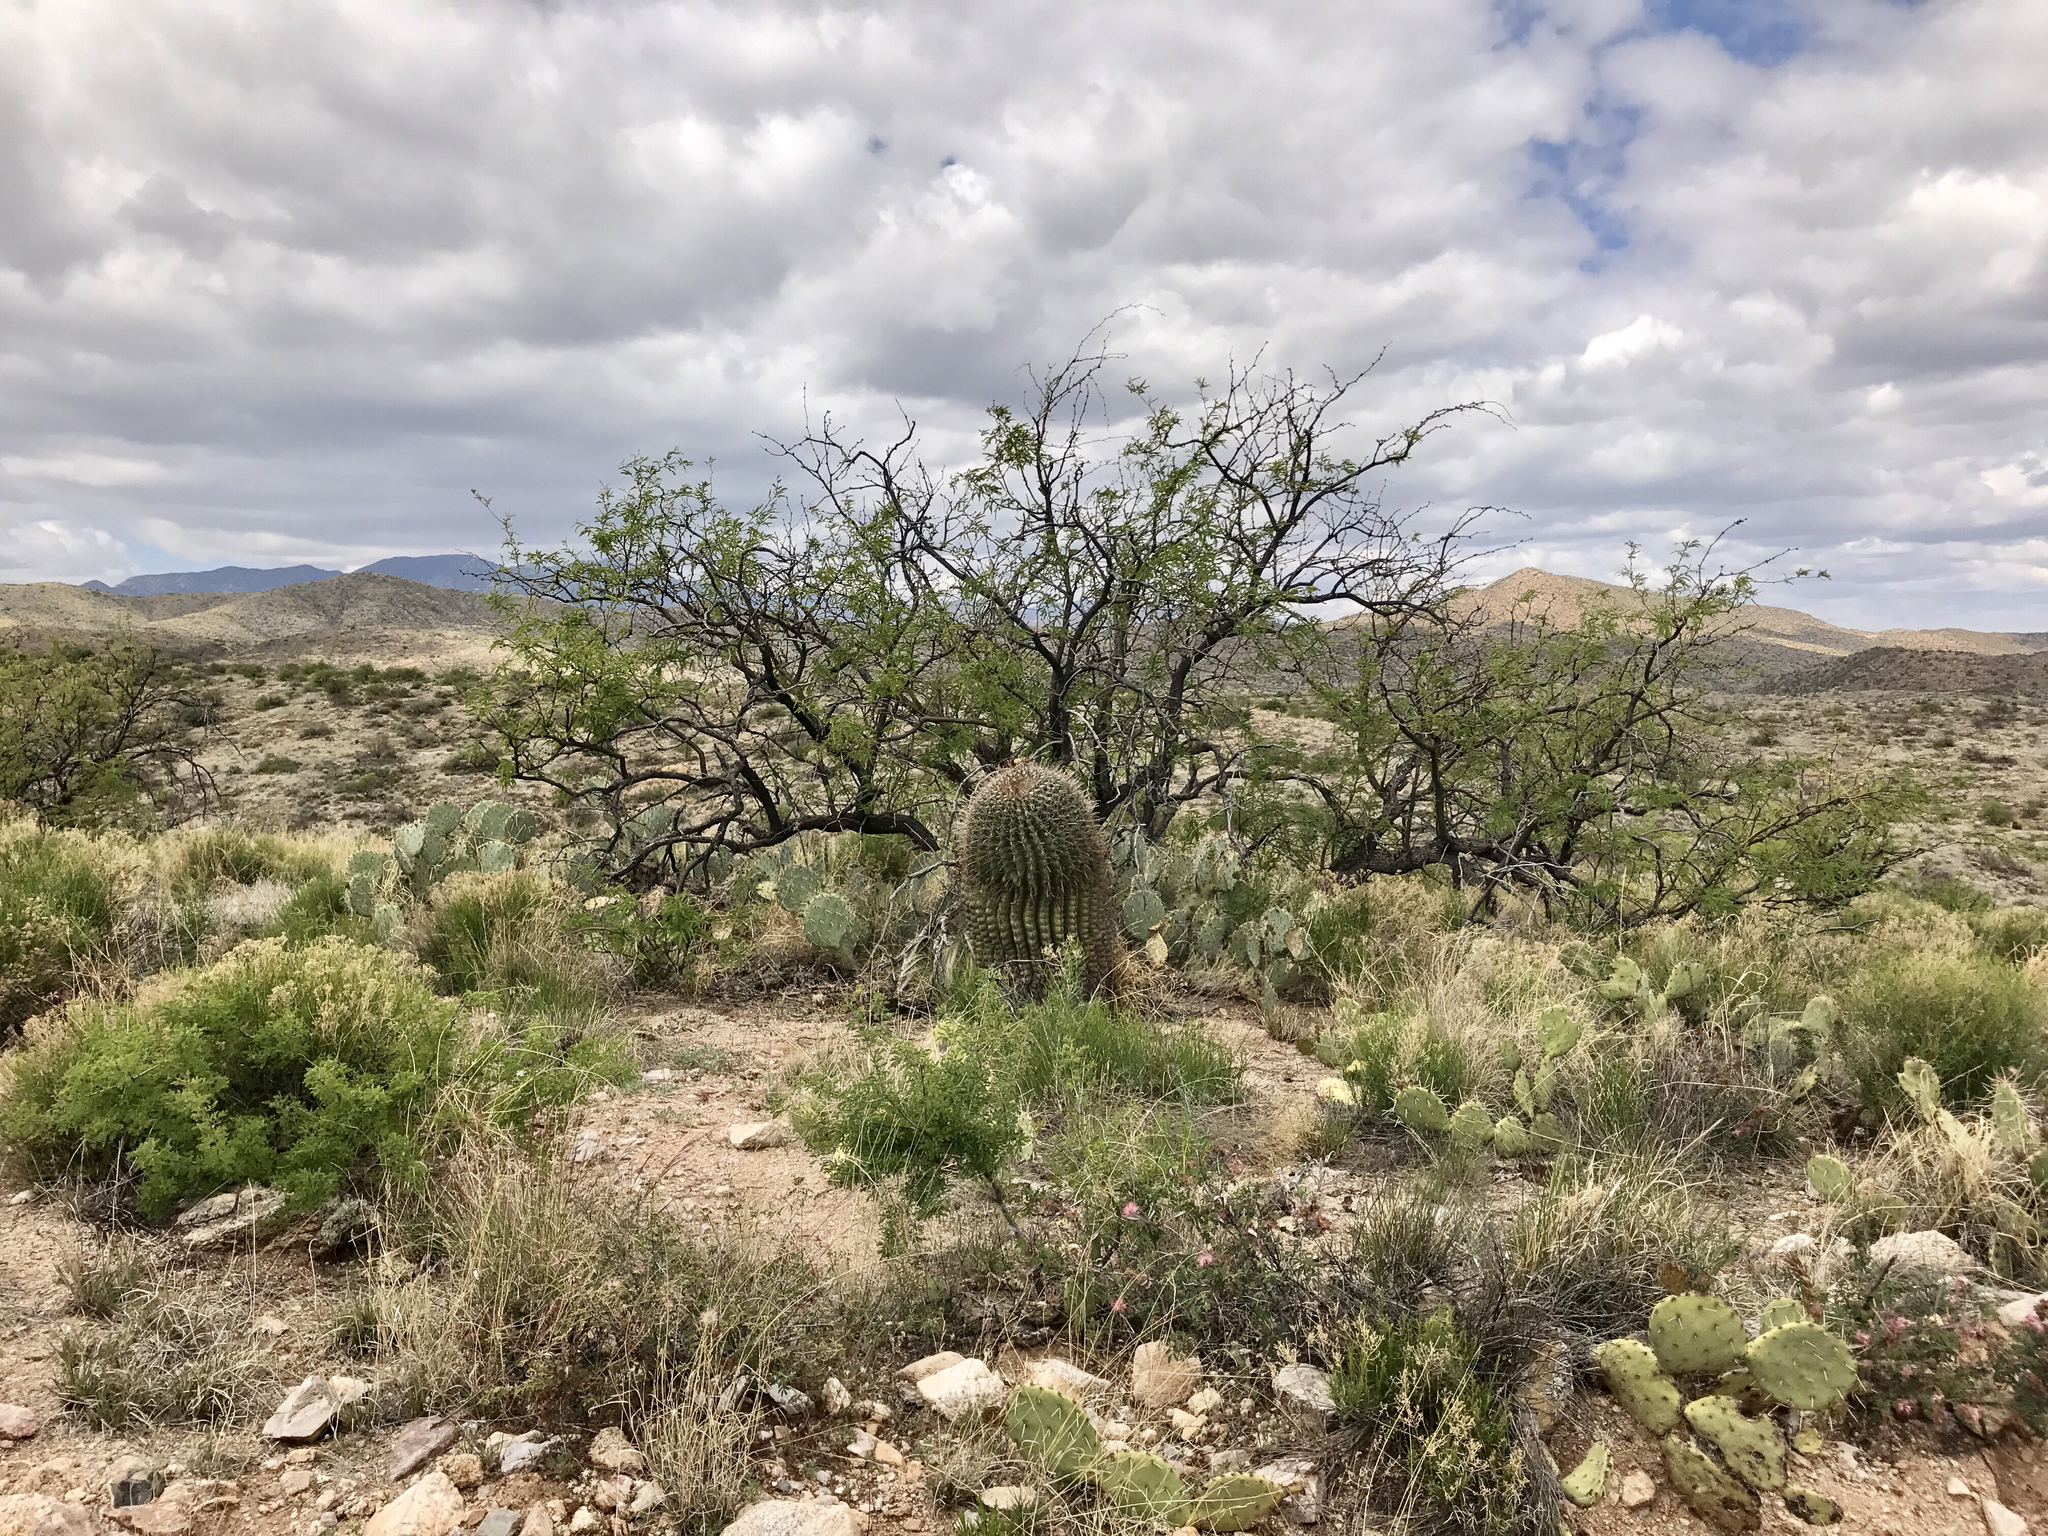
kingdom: Plantae
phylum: Tracheophyta
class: Magnoliopsida
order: Caryophyllales
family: Cactaceae
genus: Ferocactus
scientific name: Ferocactus wislizeni
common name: Candy barrel cactus
